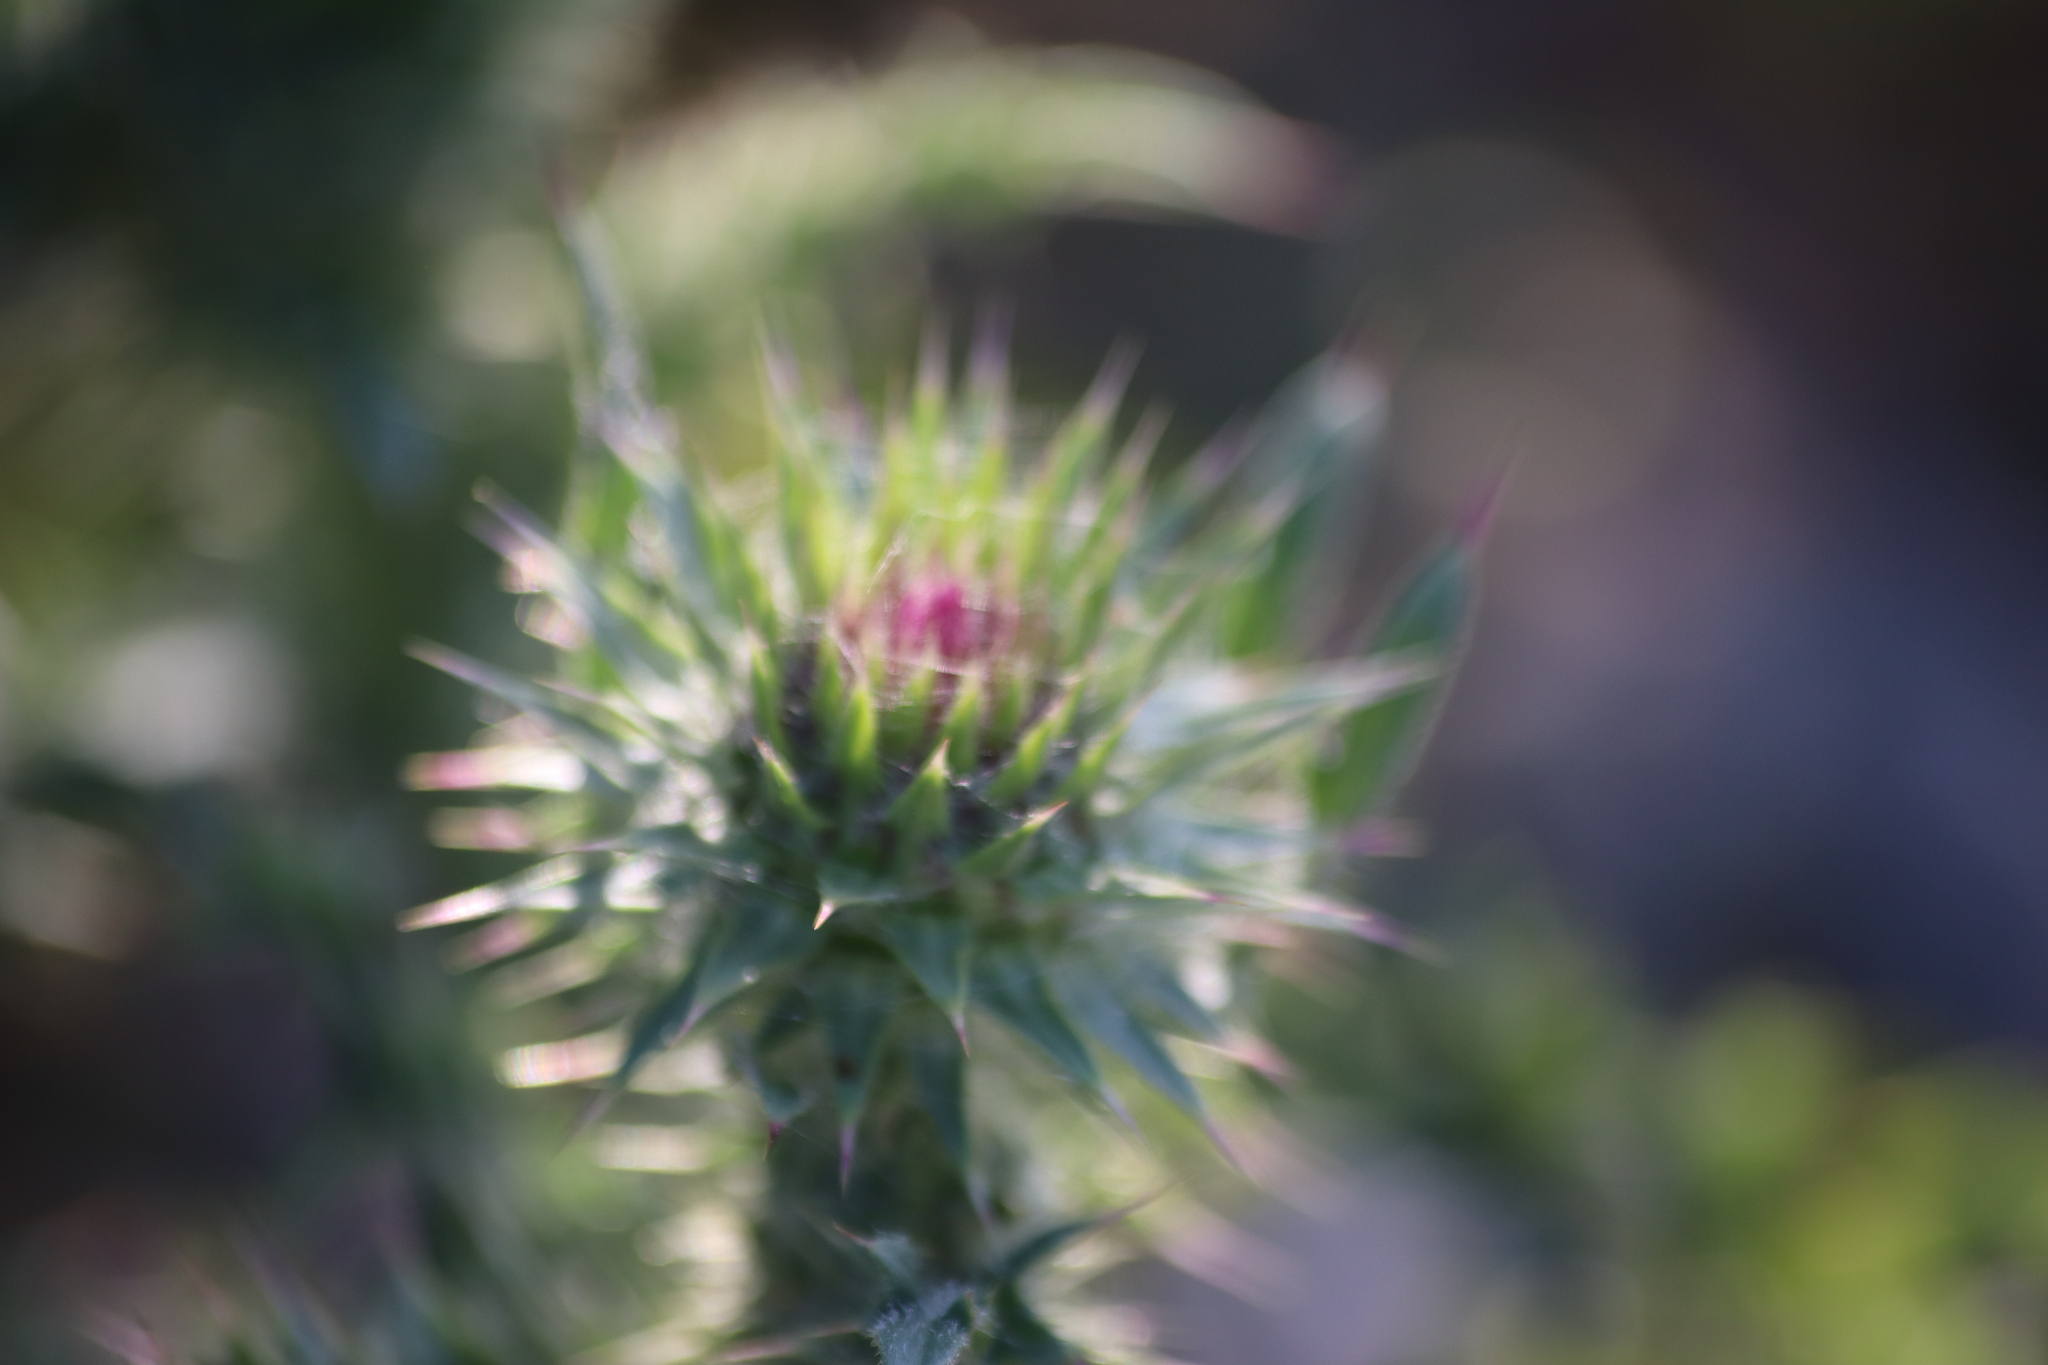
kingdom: Plantae
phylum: Tracheophyta
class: Magnoliopsida
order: Asterales
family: Asteraceae
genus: Carduus
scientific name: Carduus nutans
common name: Musk thistle
